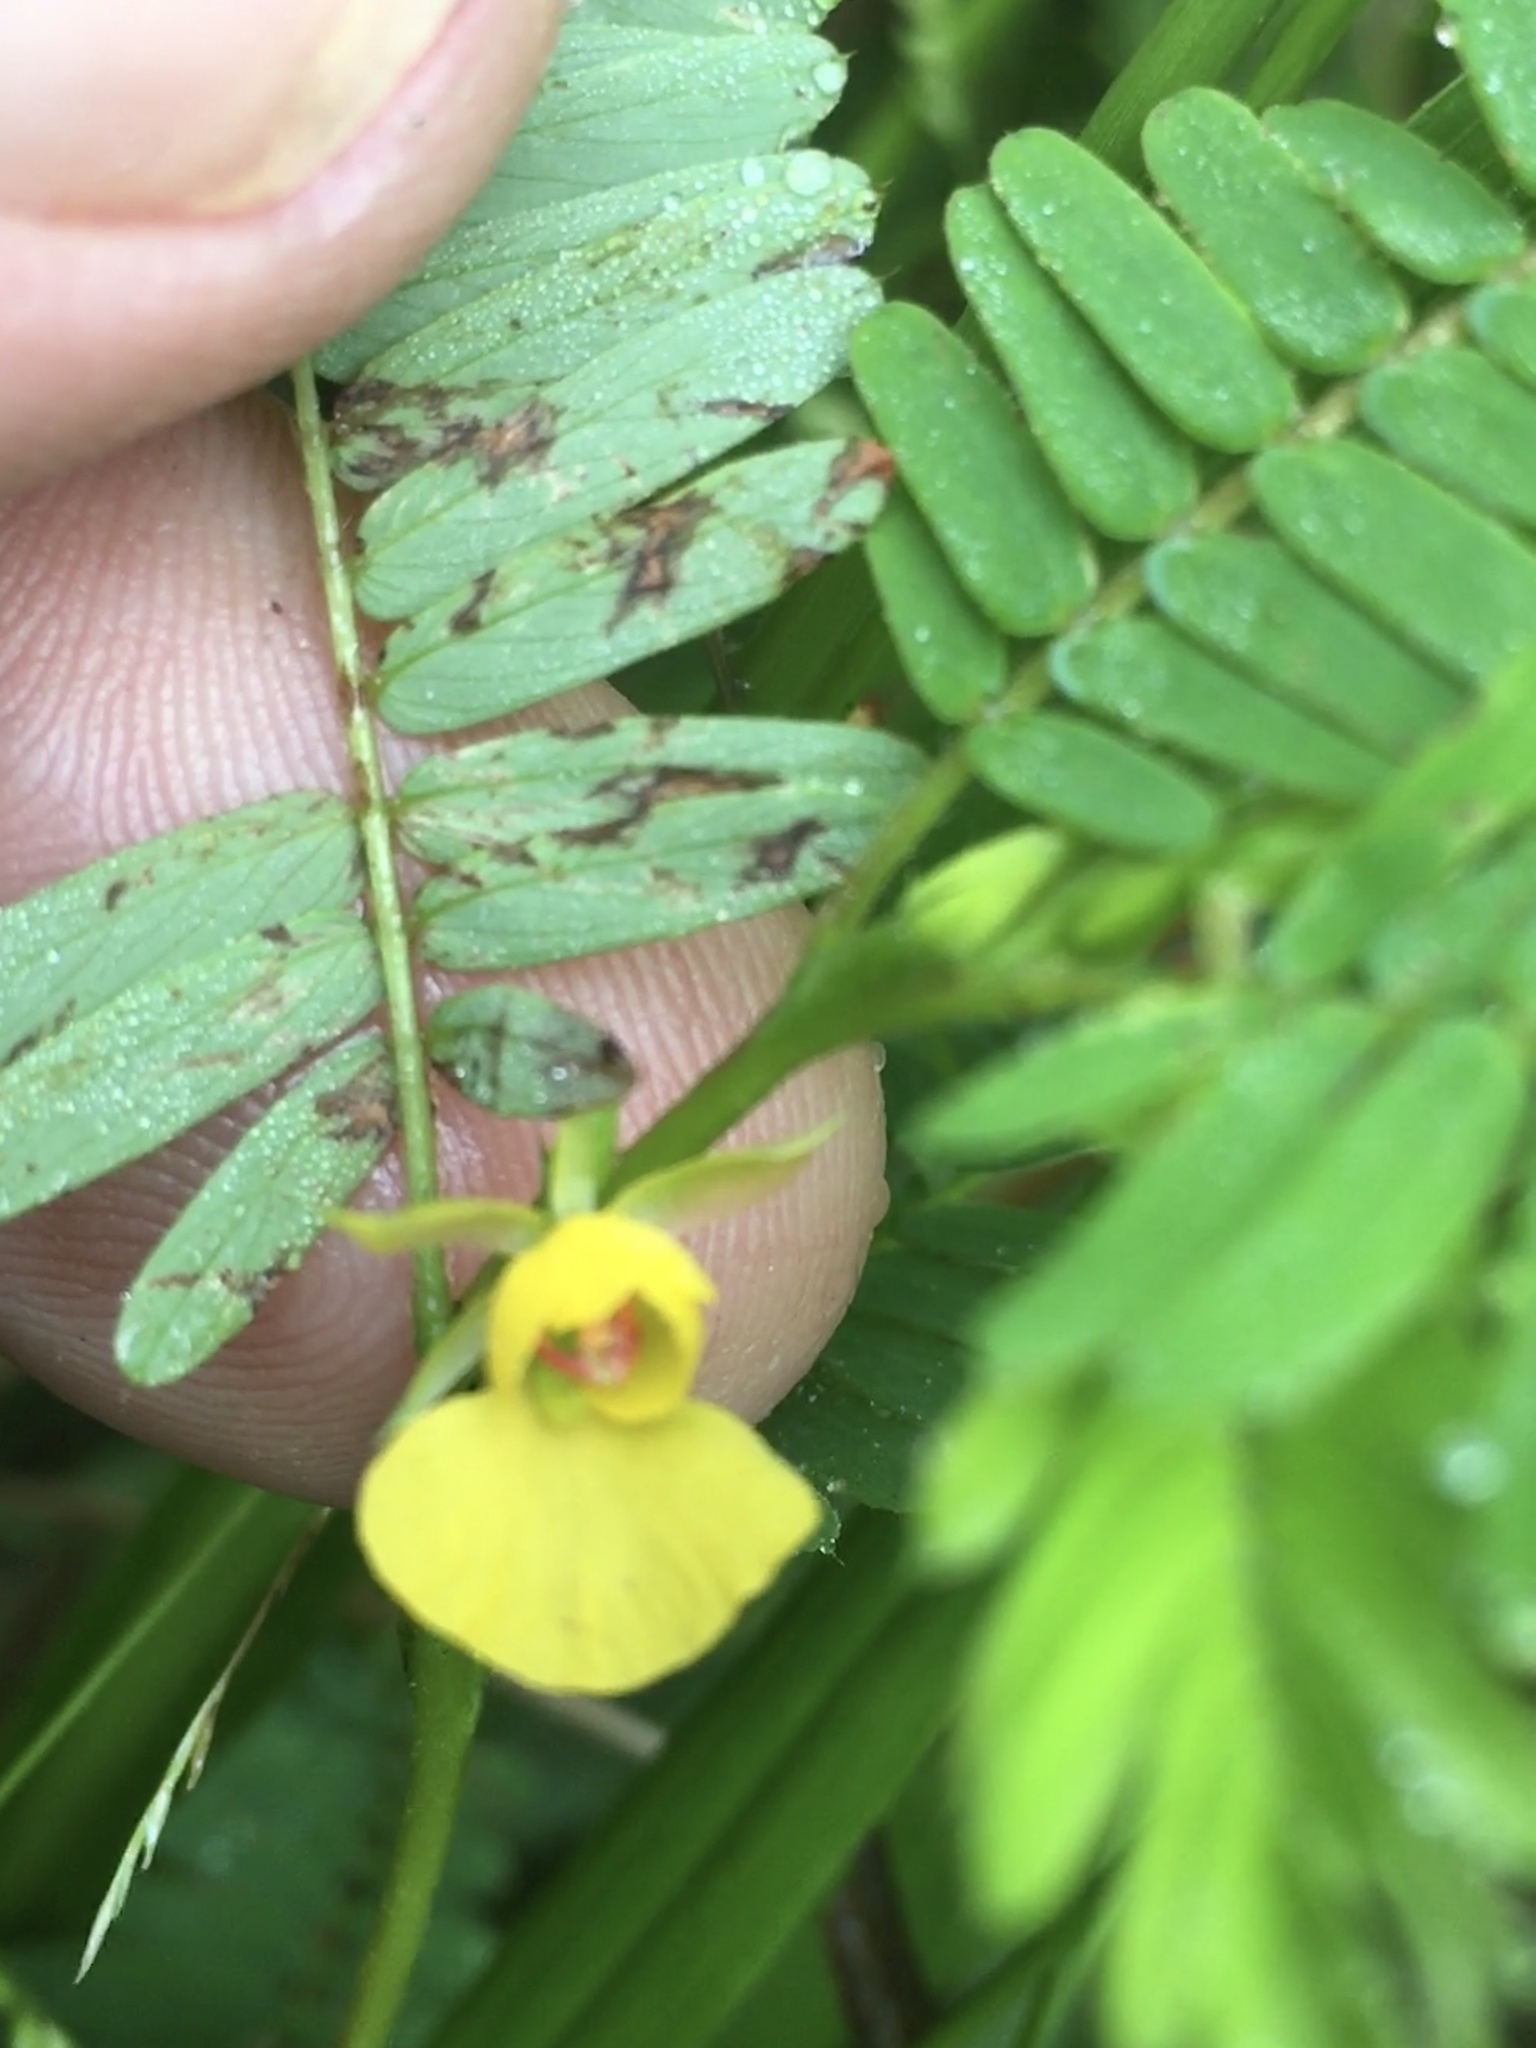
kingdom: Plantae
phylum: Tracheophyta
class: Magnoliopsida
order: Fabales
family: Fabaceae
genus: Chamaecrista
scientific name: Chamaecrista nictitans
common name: Sensitive cassia
